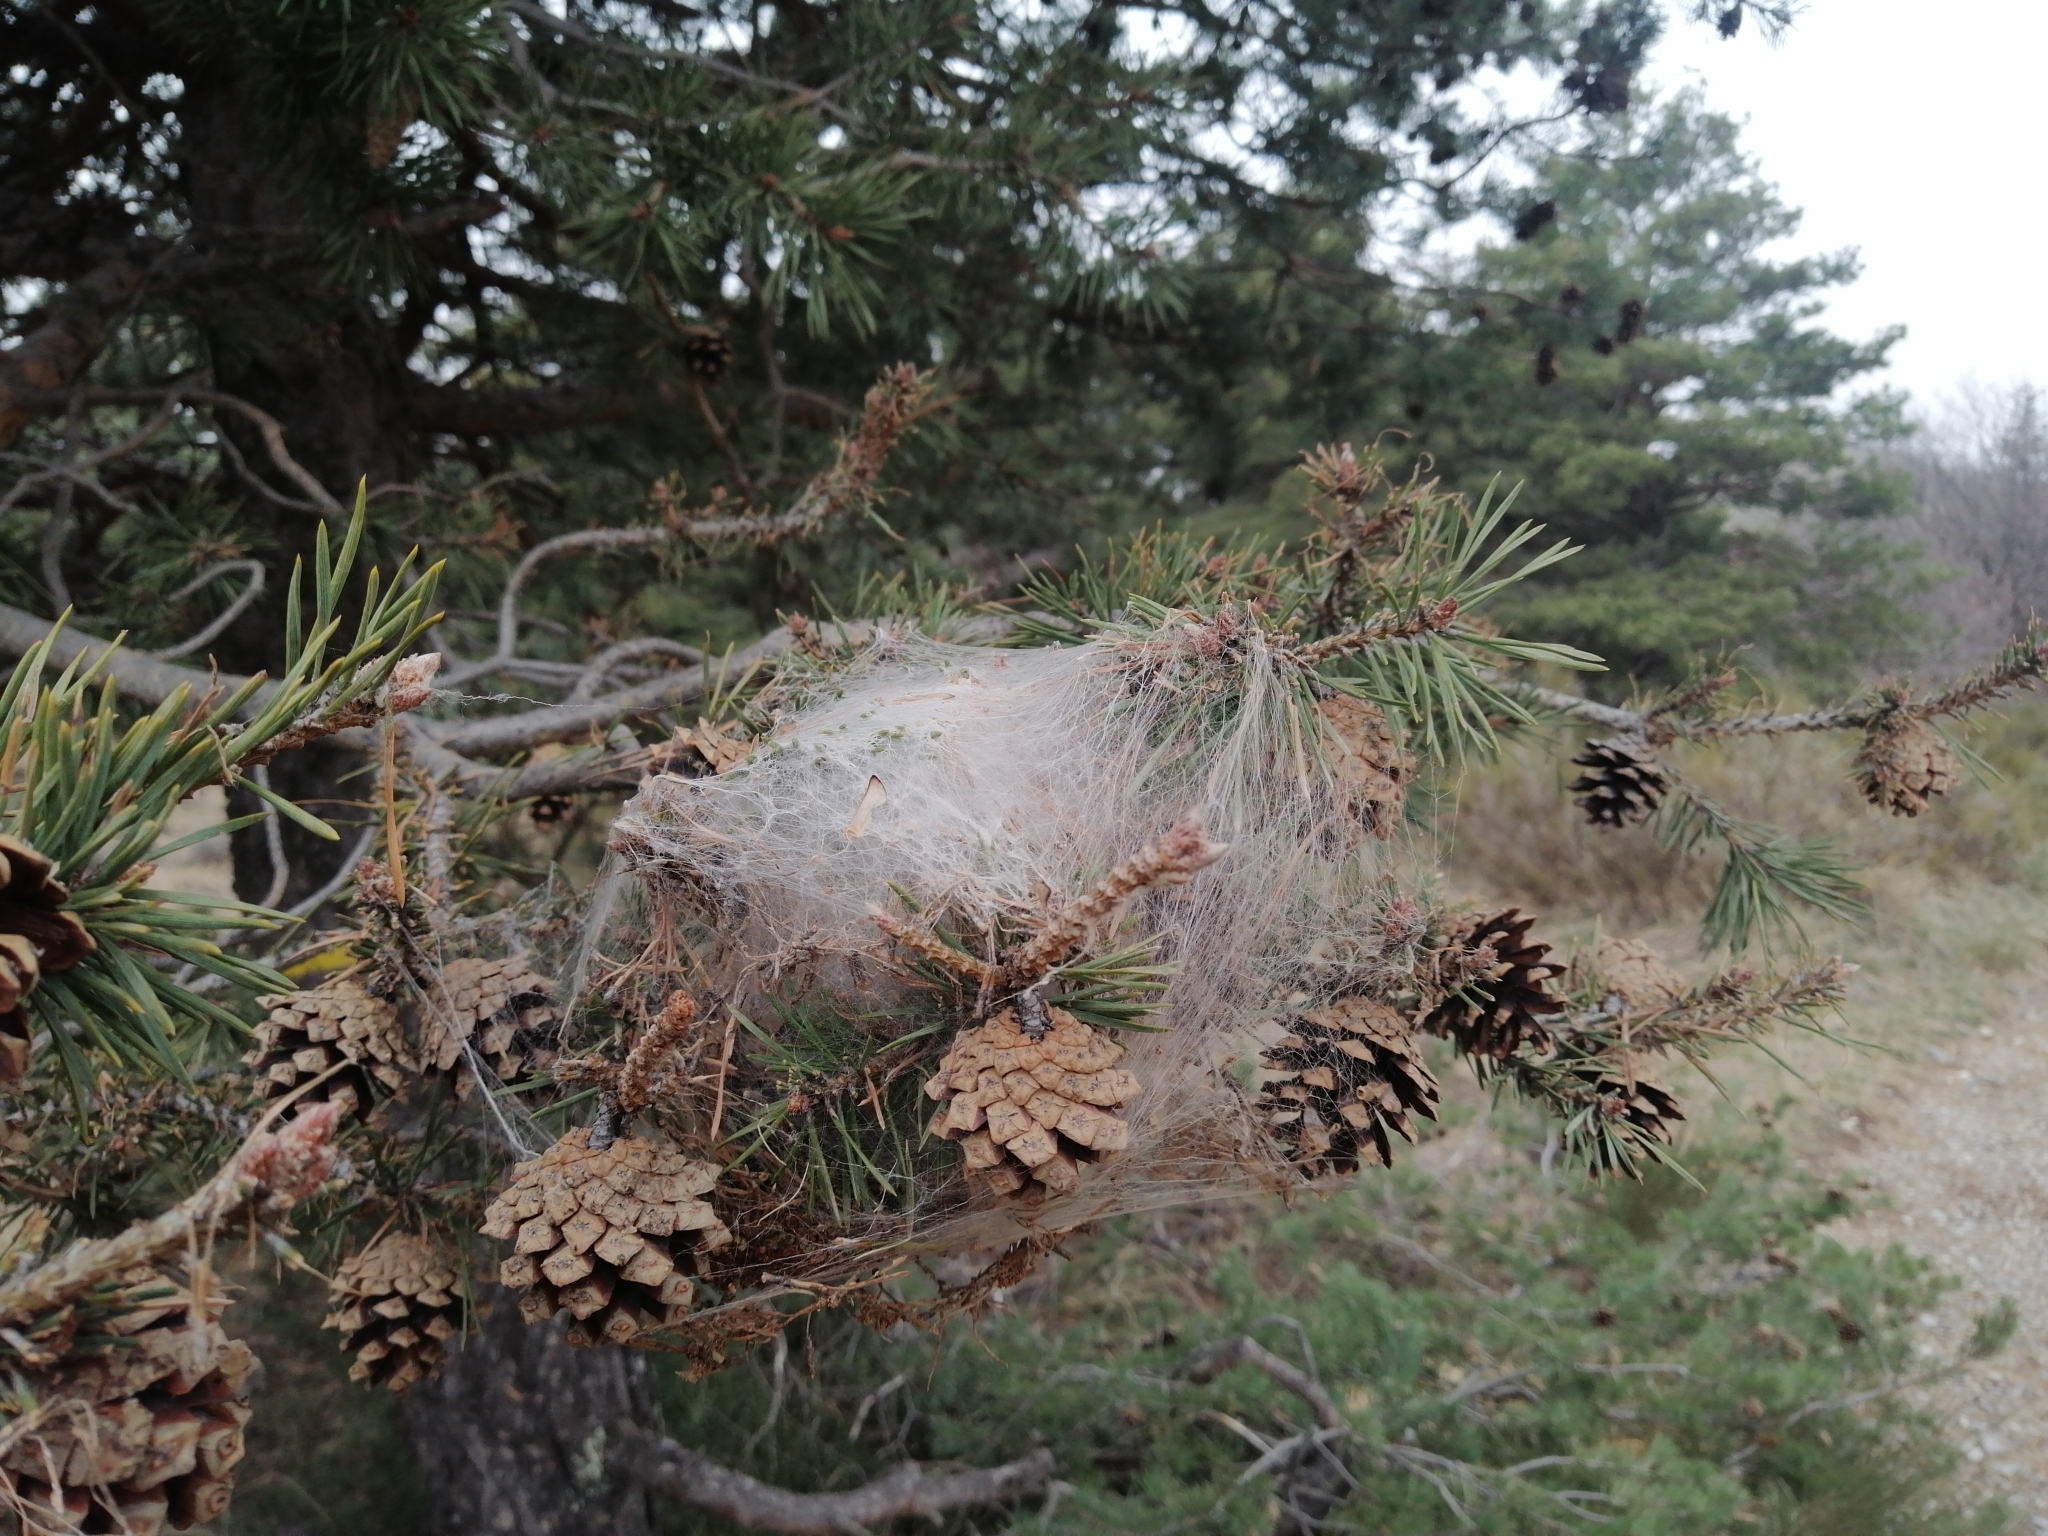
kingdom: Animalia
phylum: Arthropoda
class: Insecta
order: Lepidoptera
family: Notodontidae
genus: Thaumetopoea
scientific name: Thaumetopoea pityocampa
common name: Pine processionary
